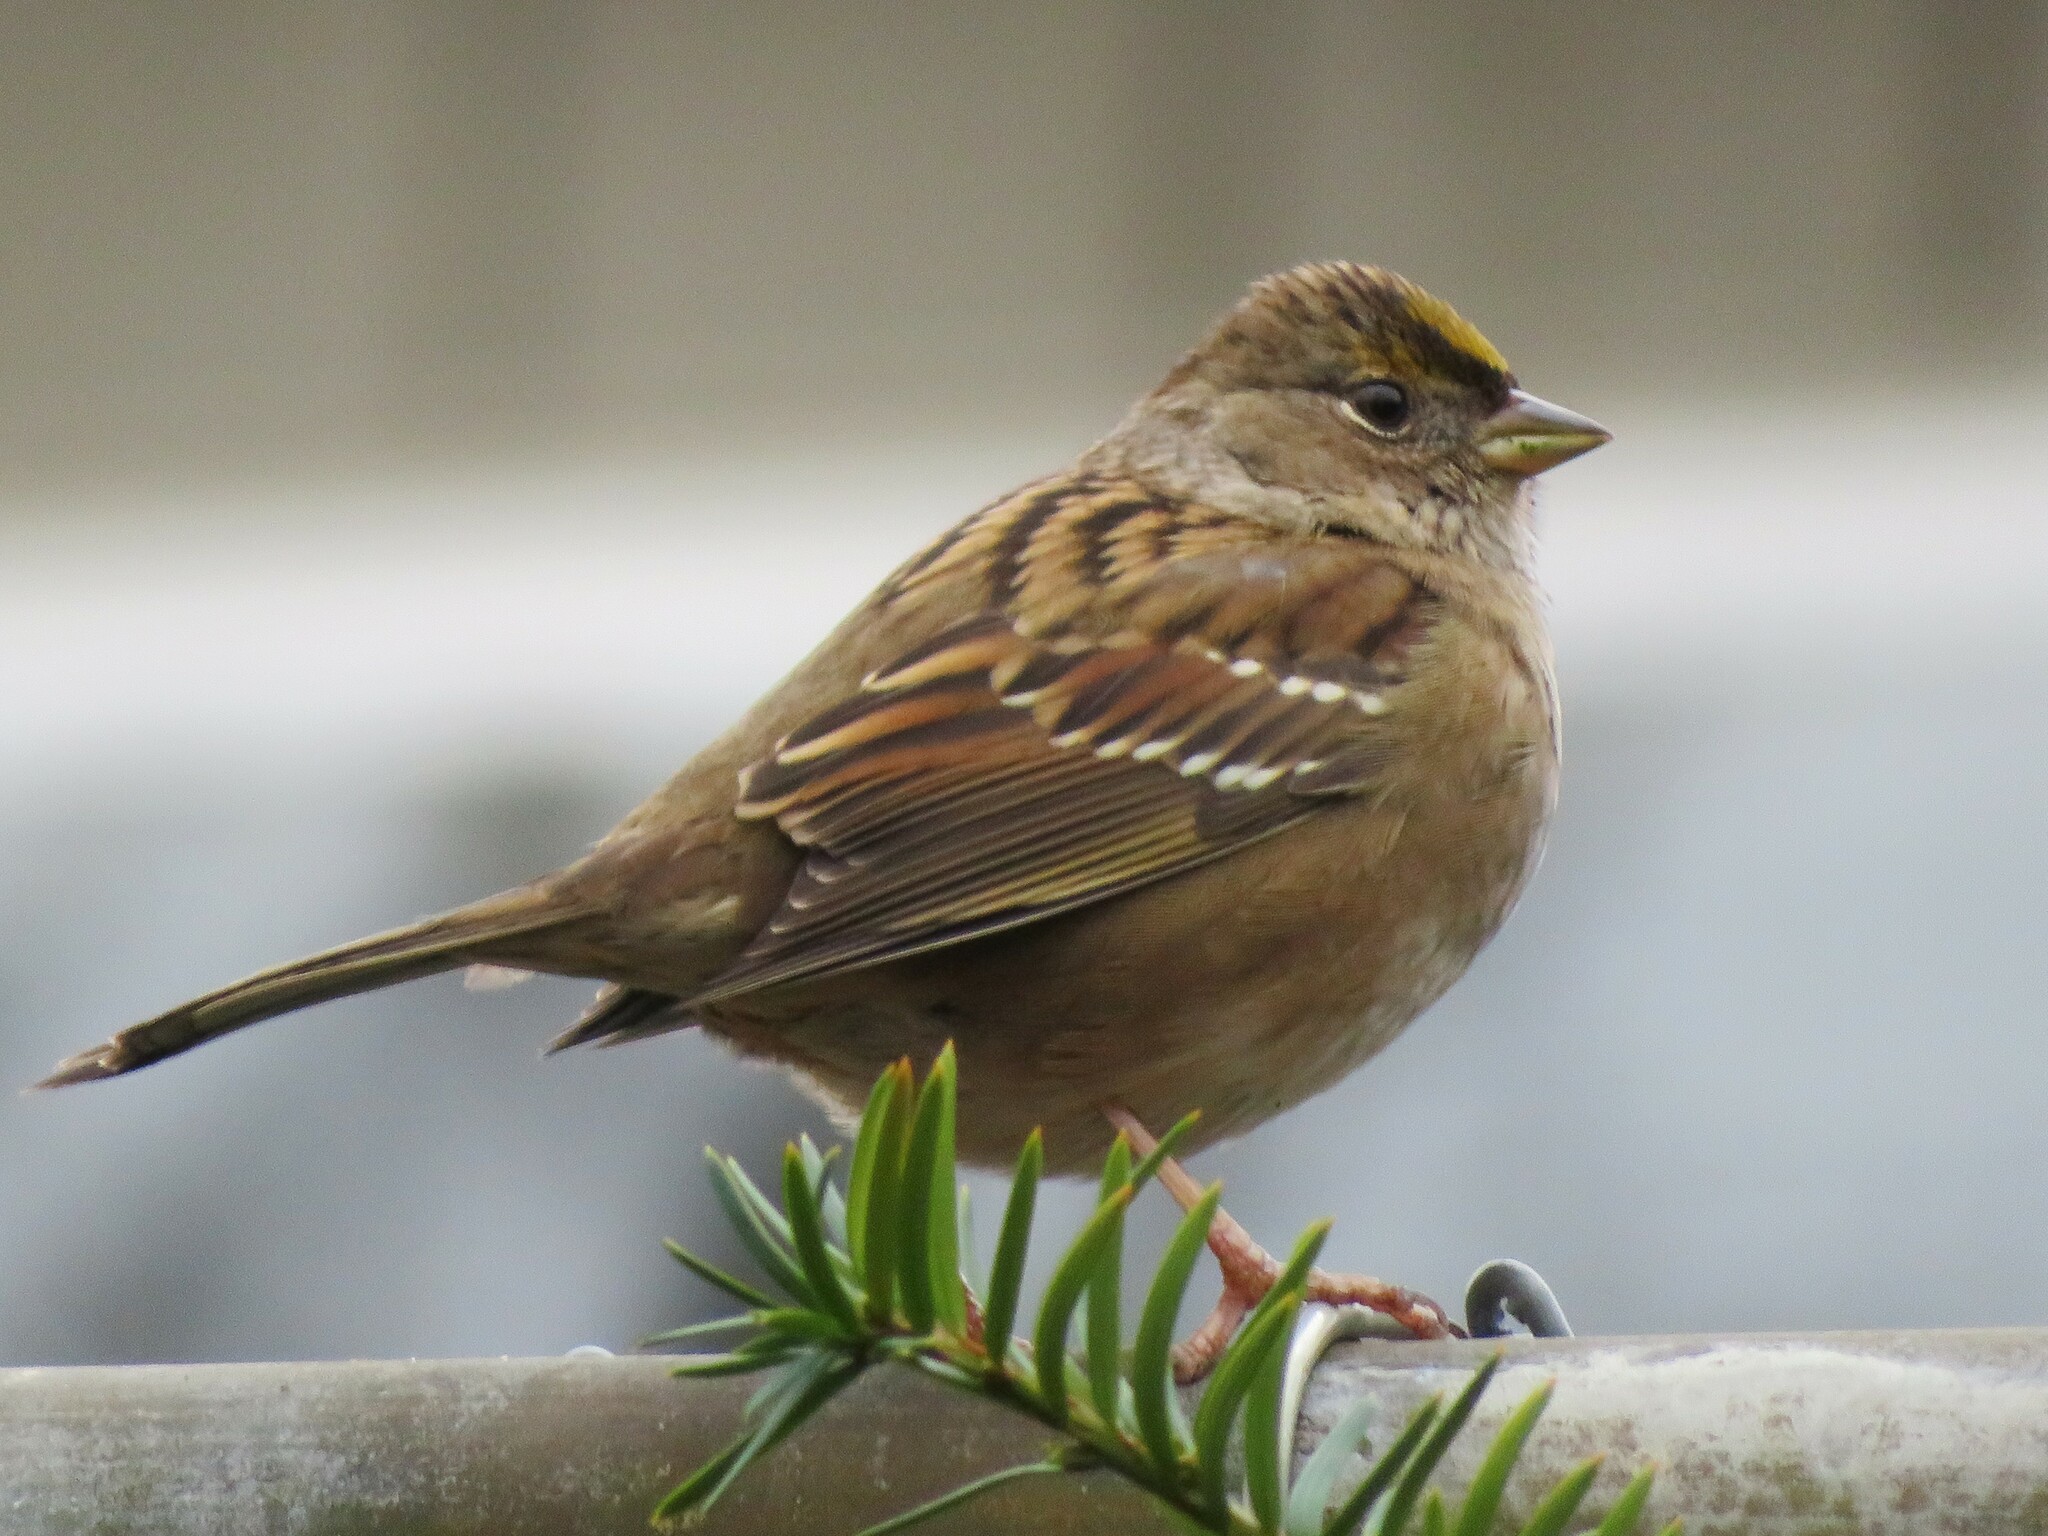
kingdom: Animalia
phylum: Chordata
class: Aves
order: Passeriformes
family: Passerellidae
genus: Zonotrichia
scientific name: Zonotrichia atricapilla
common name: Golden-crowned sparrow
